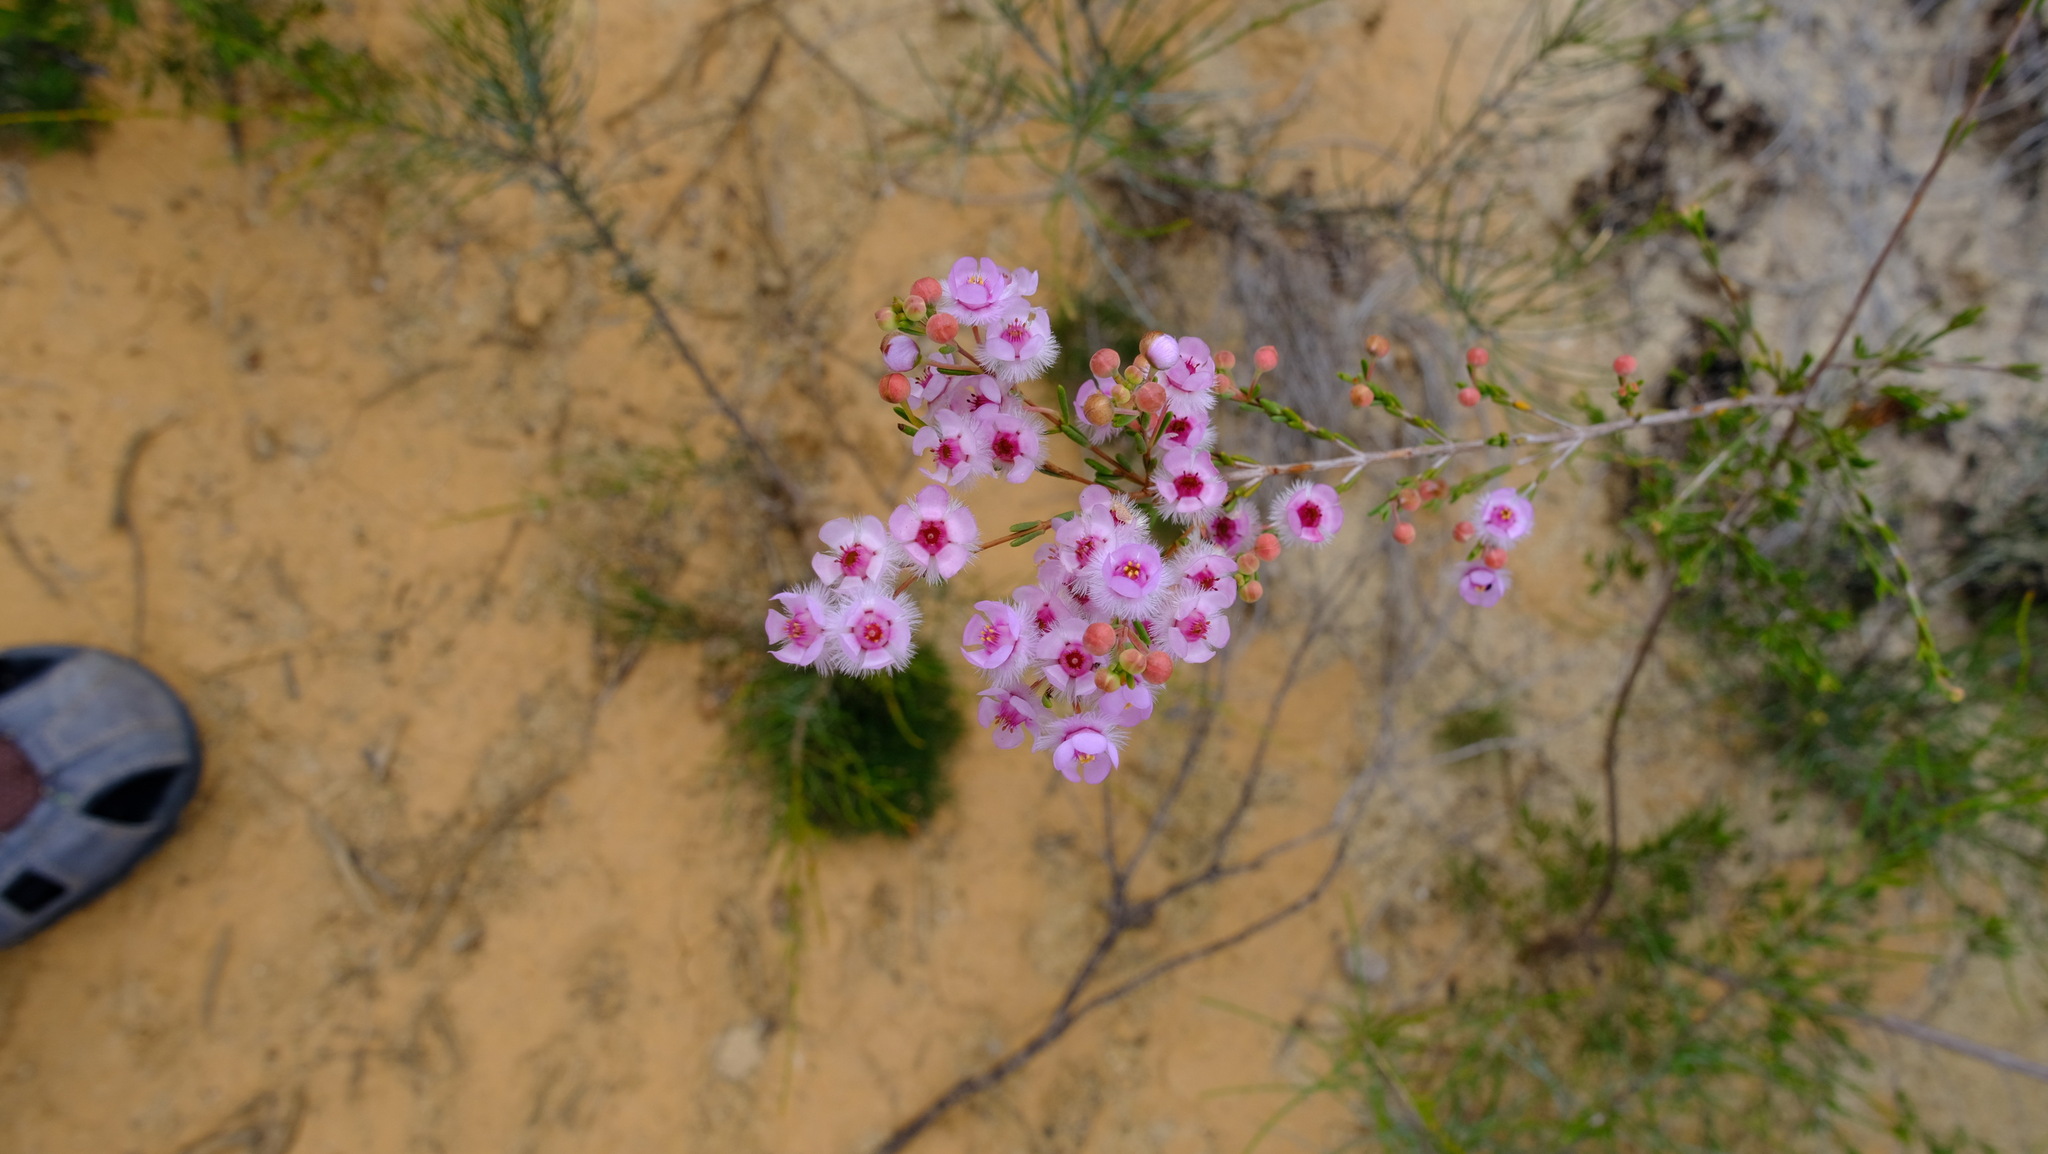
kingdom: Plantae
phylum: Tracheophyta
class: Magnoliopsida
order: Myrtales
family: Myrtaceae
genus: Verticordia
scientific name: Verticordia picta
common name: Painted feather-flower
